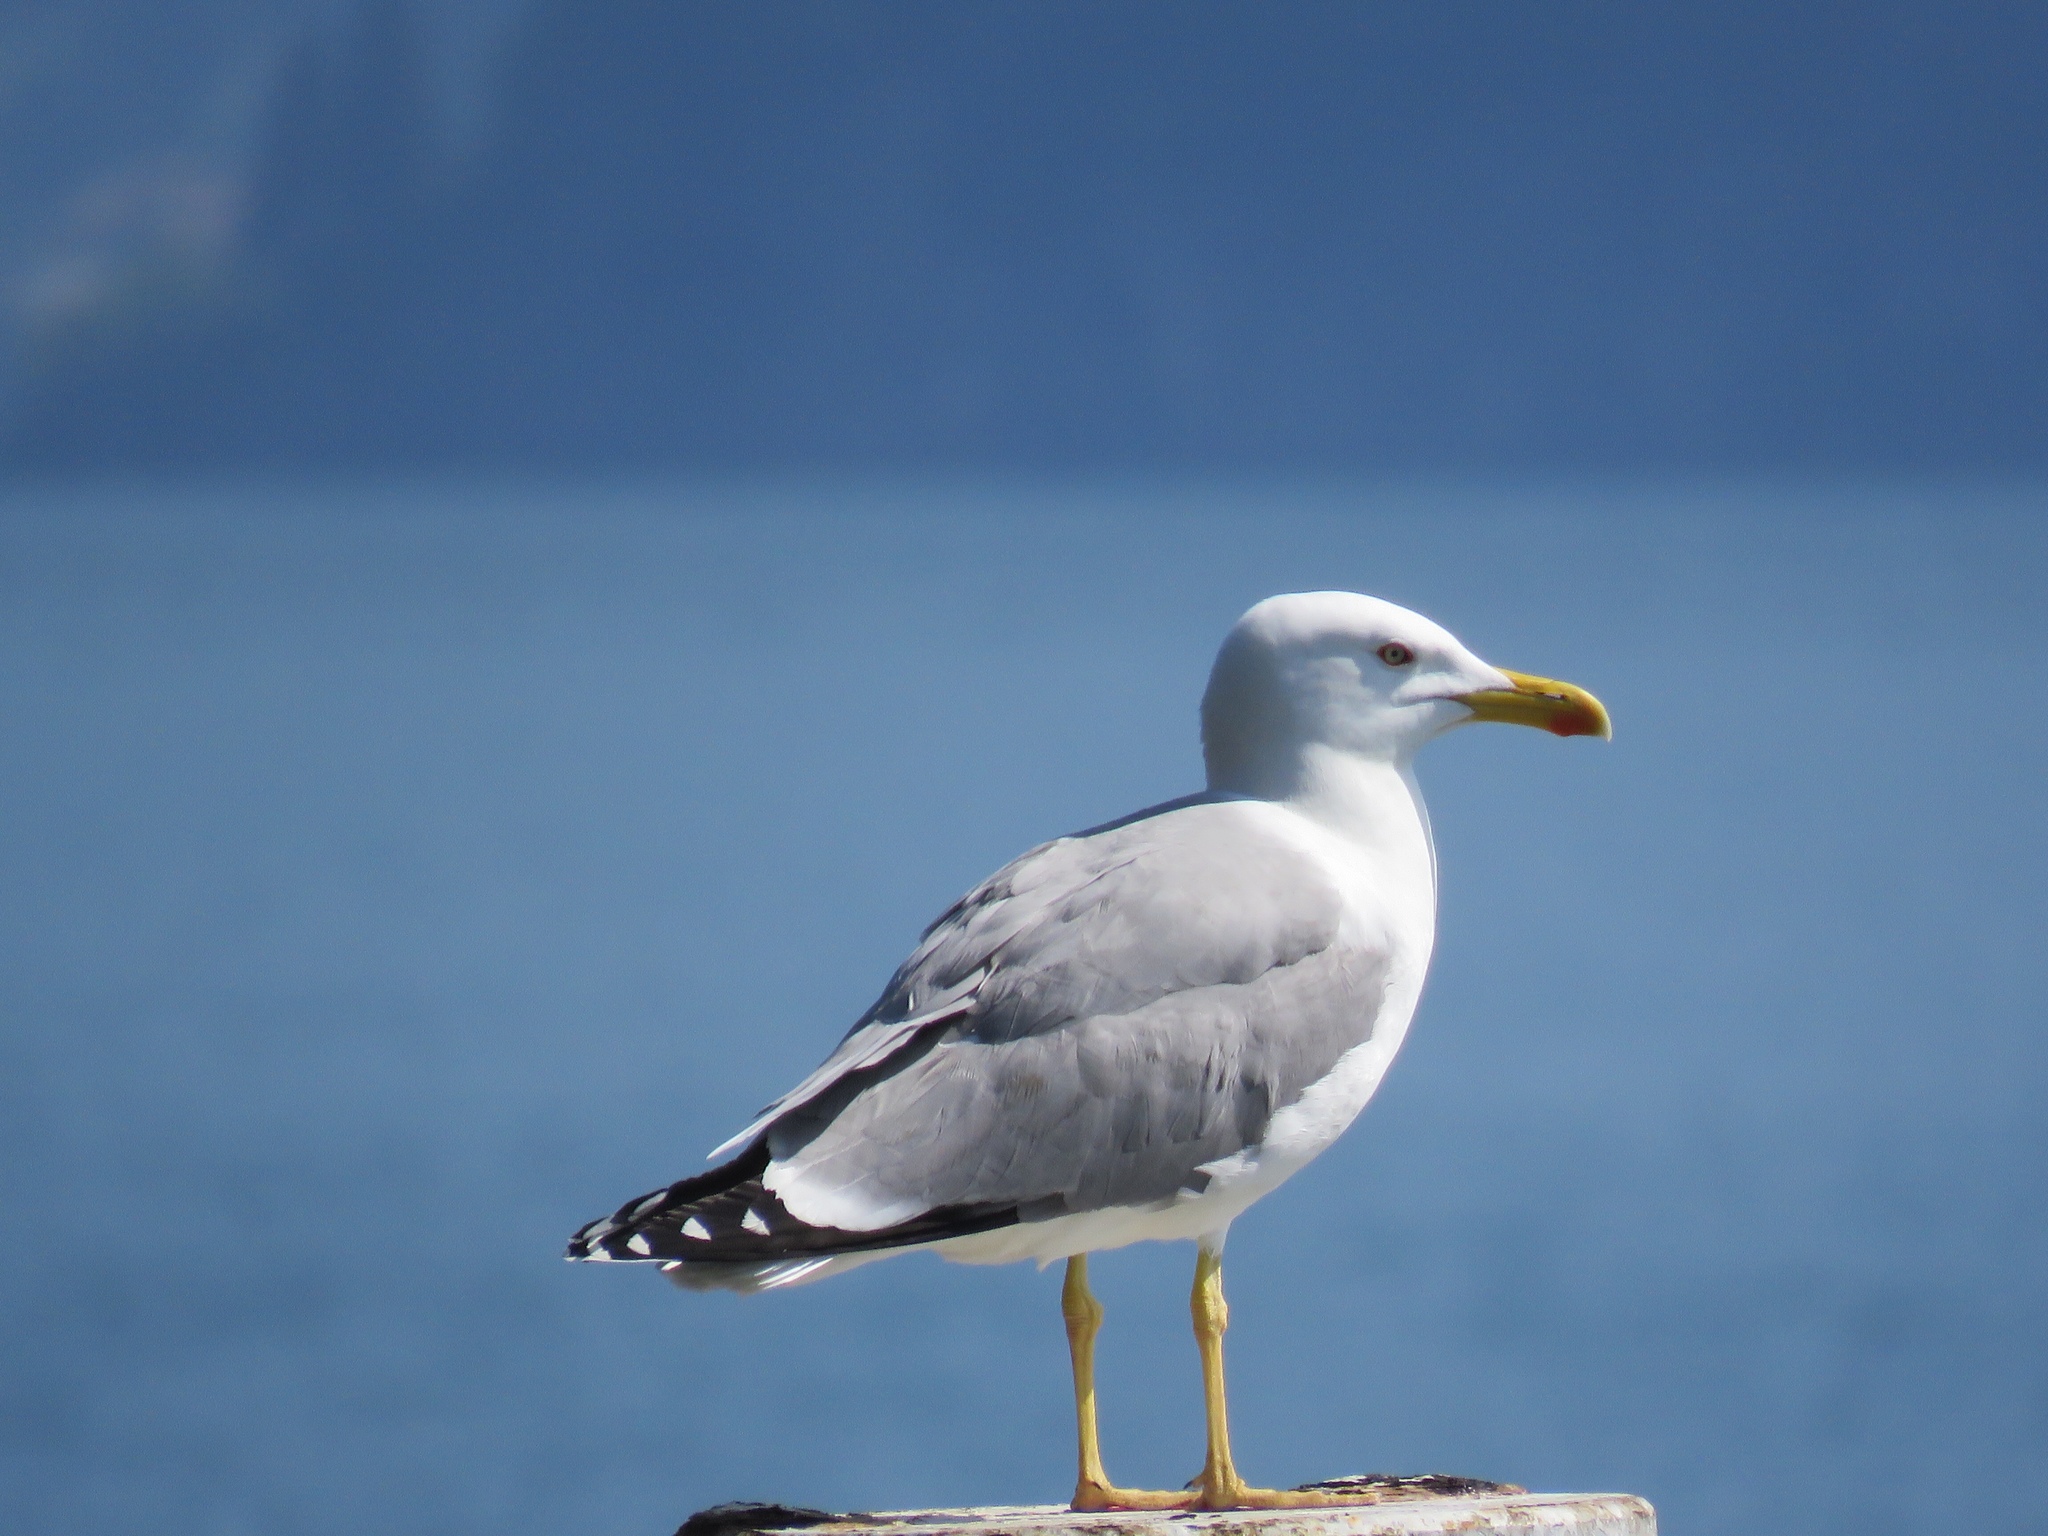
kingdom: Animalia
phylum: Chordata
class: Aves
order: Charadriiformes
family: Laridae
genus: Larus
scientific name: Larus michahellis
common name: Yellow-legged gull
